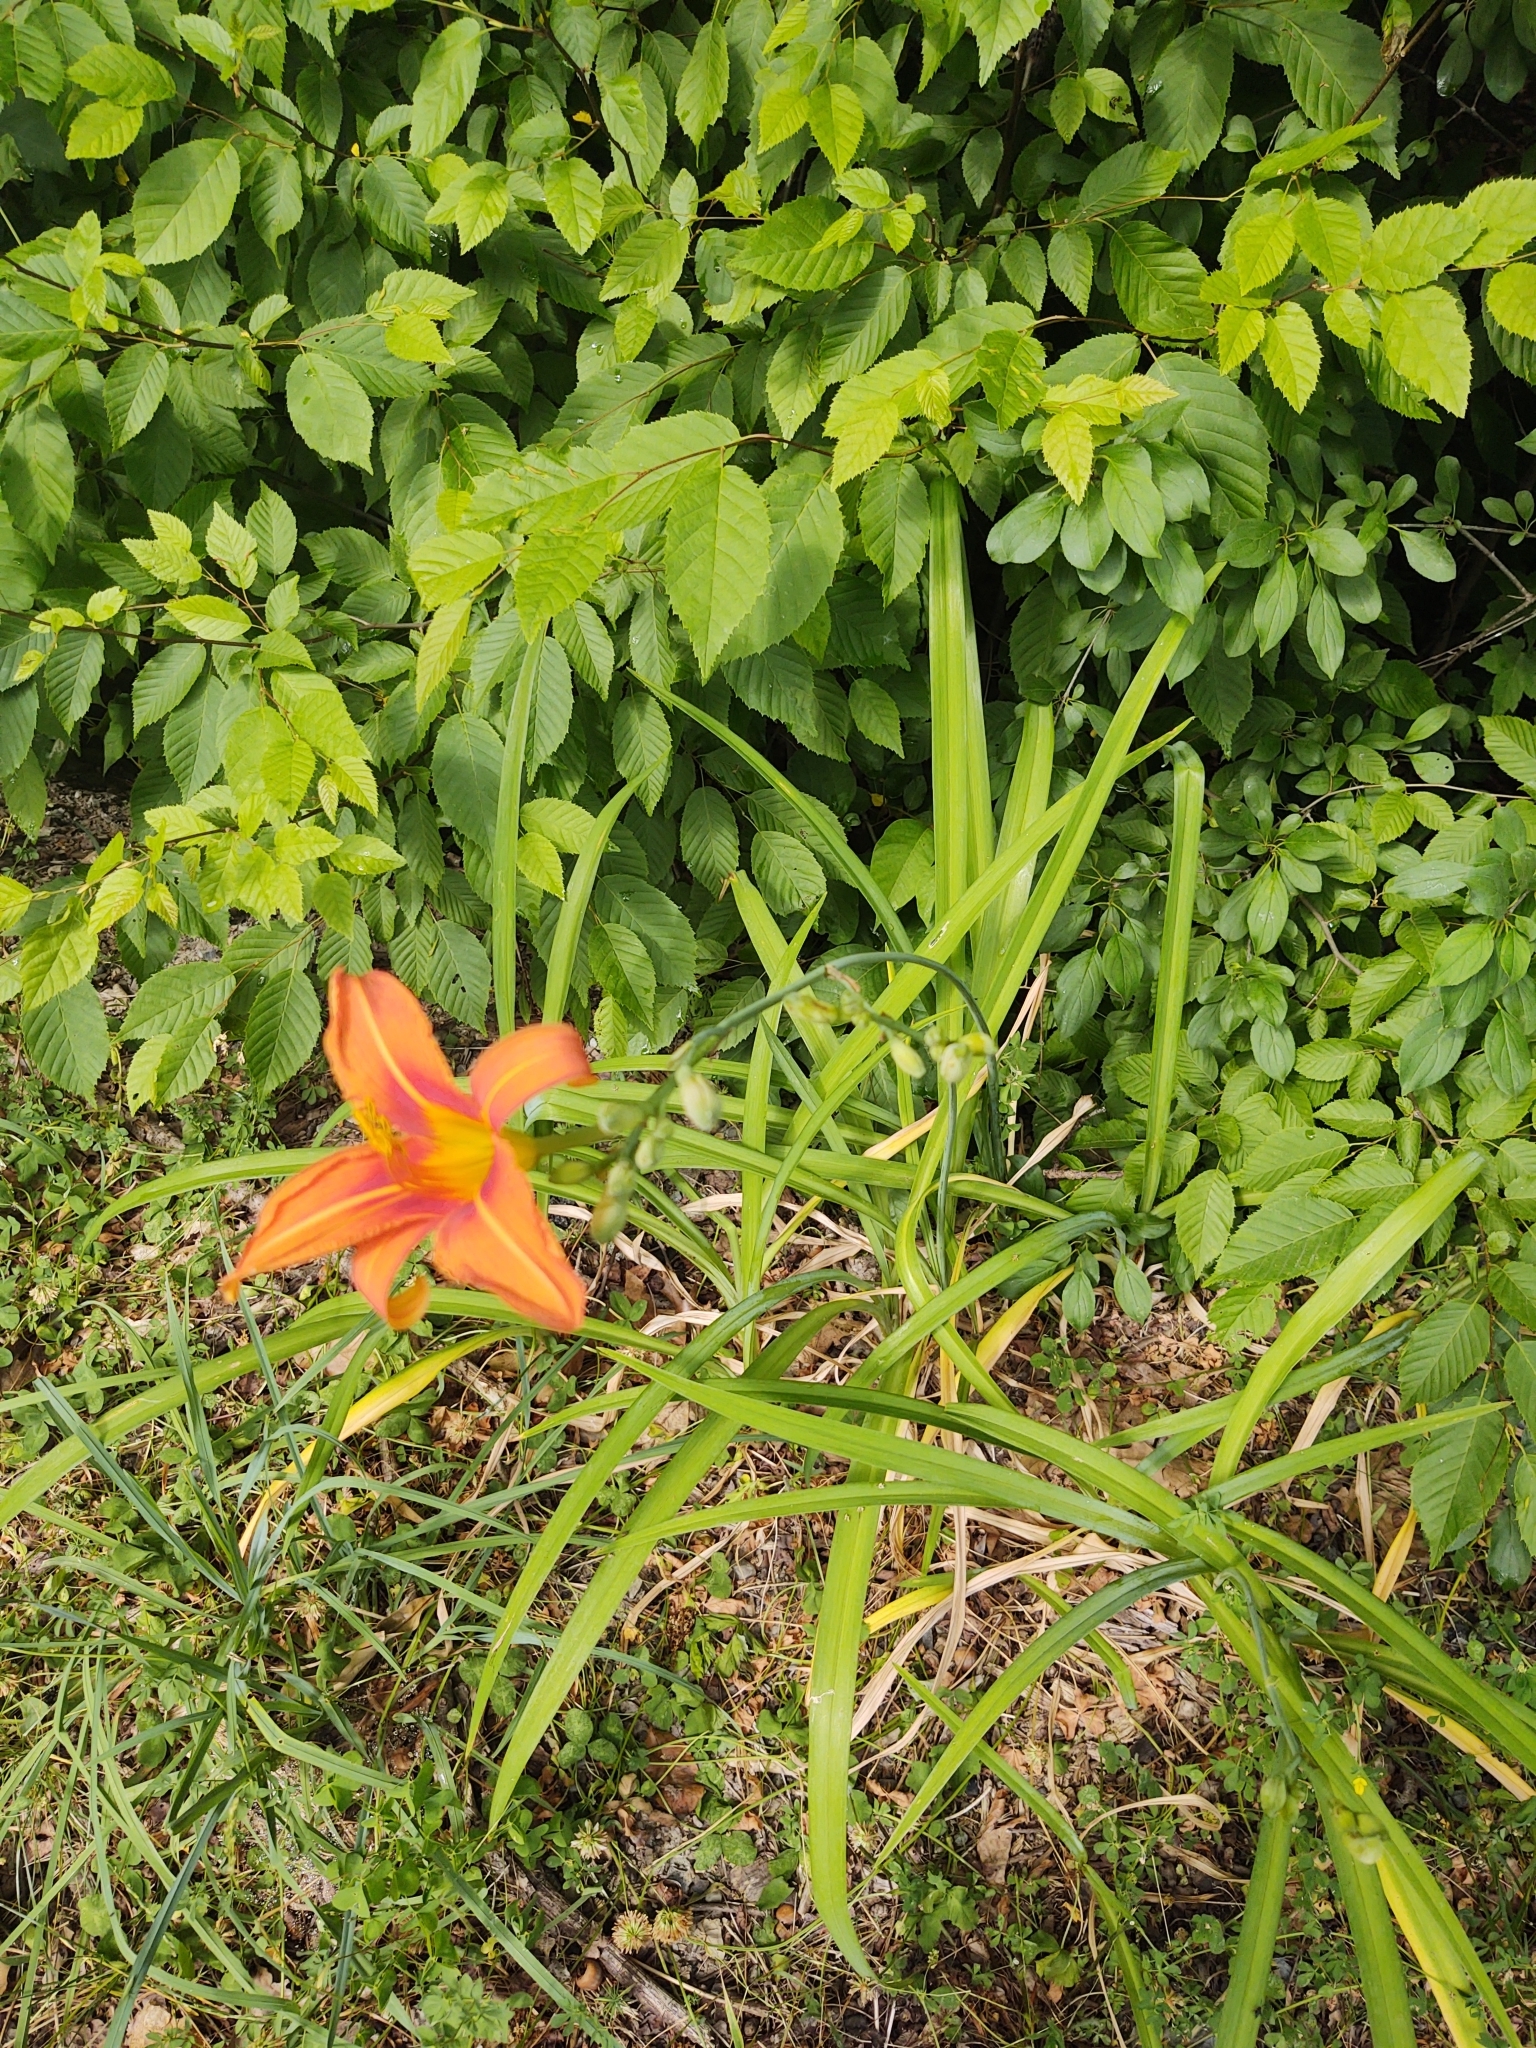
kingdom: Plantae
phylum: Tracheophyta
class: Liliopsida
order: Asparagales
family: Asphodelaceae
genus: Hemerocallis
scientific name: Hemerocallis fulva
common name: Orange day-lily
